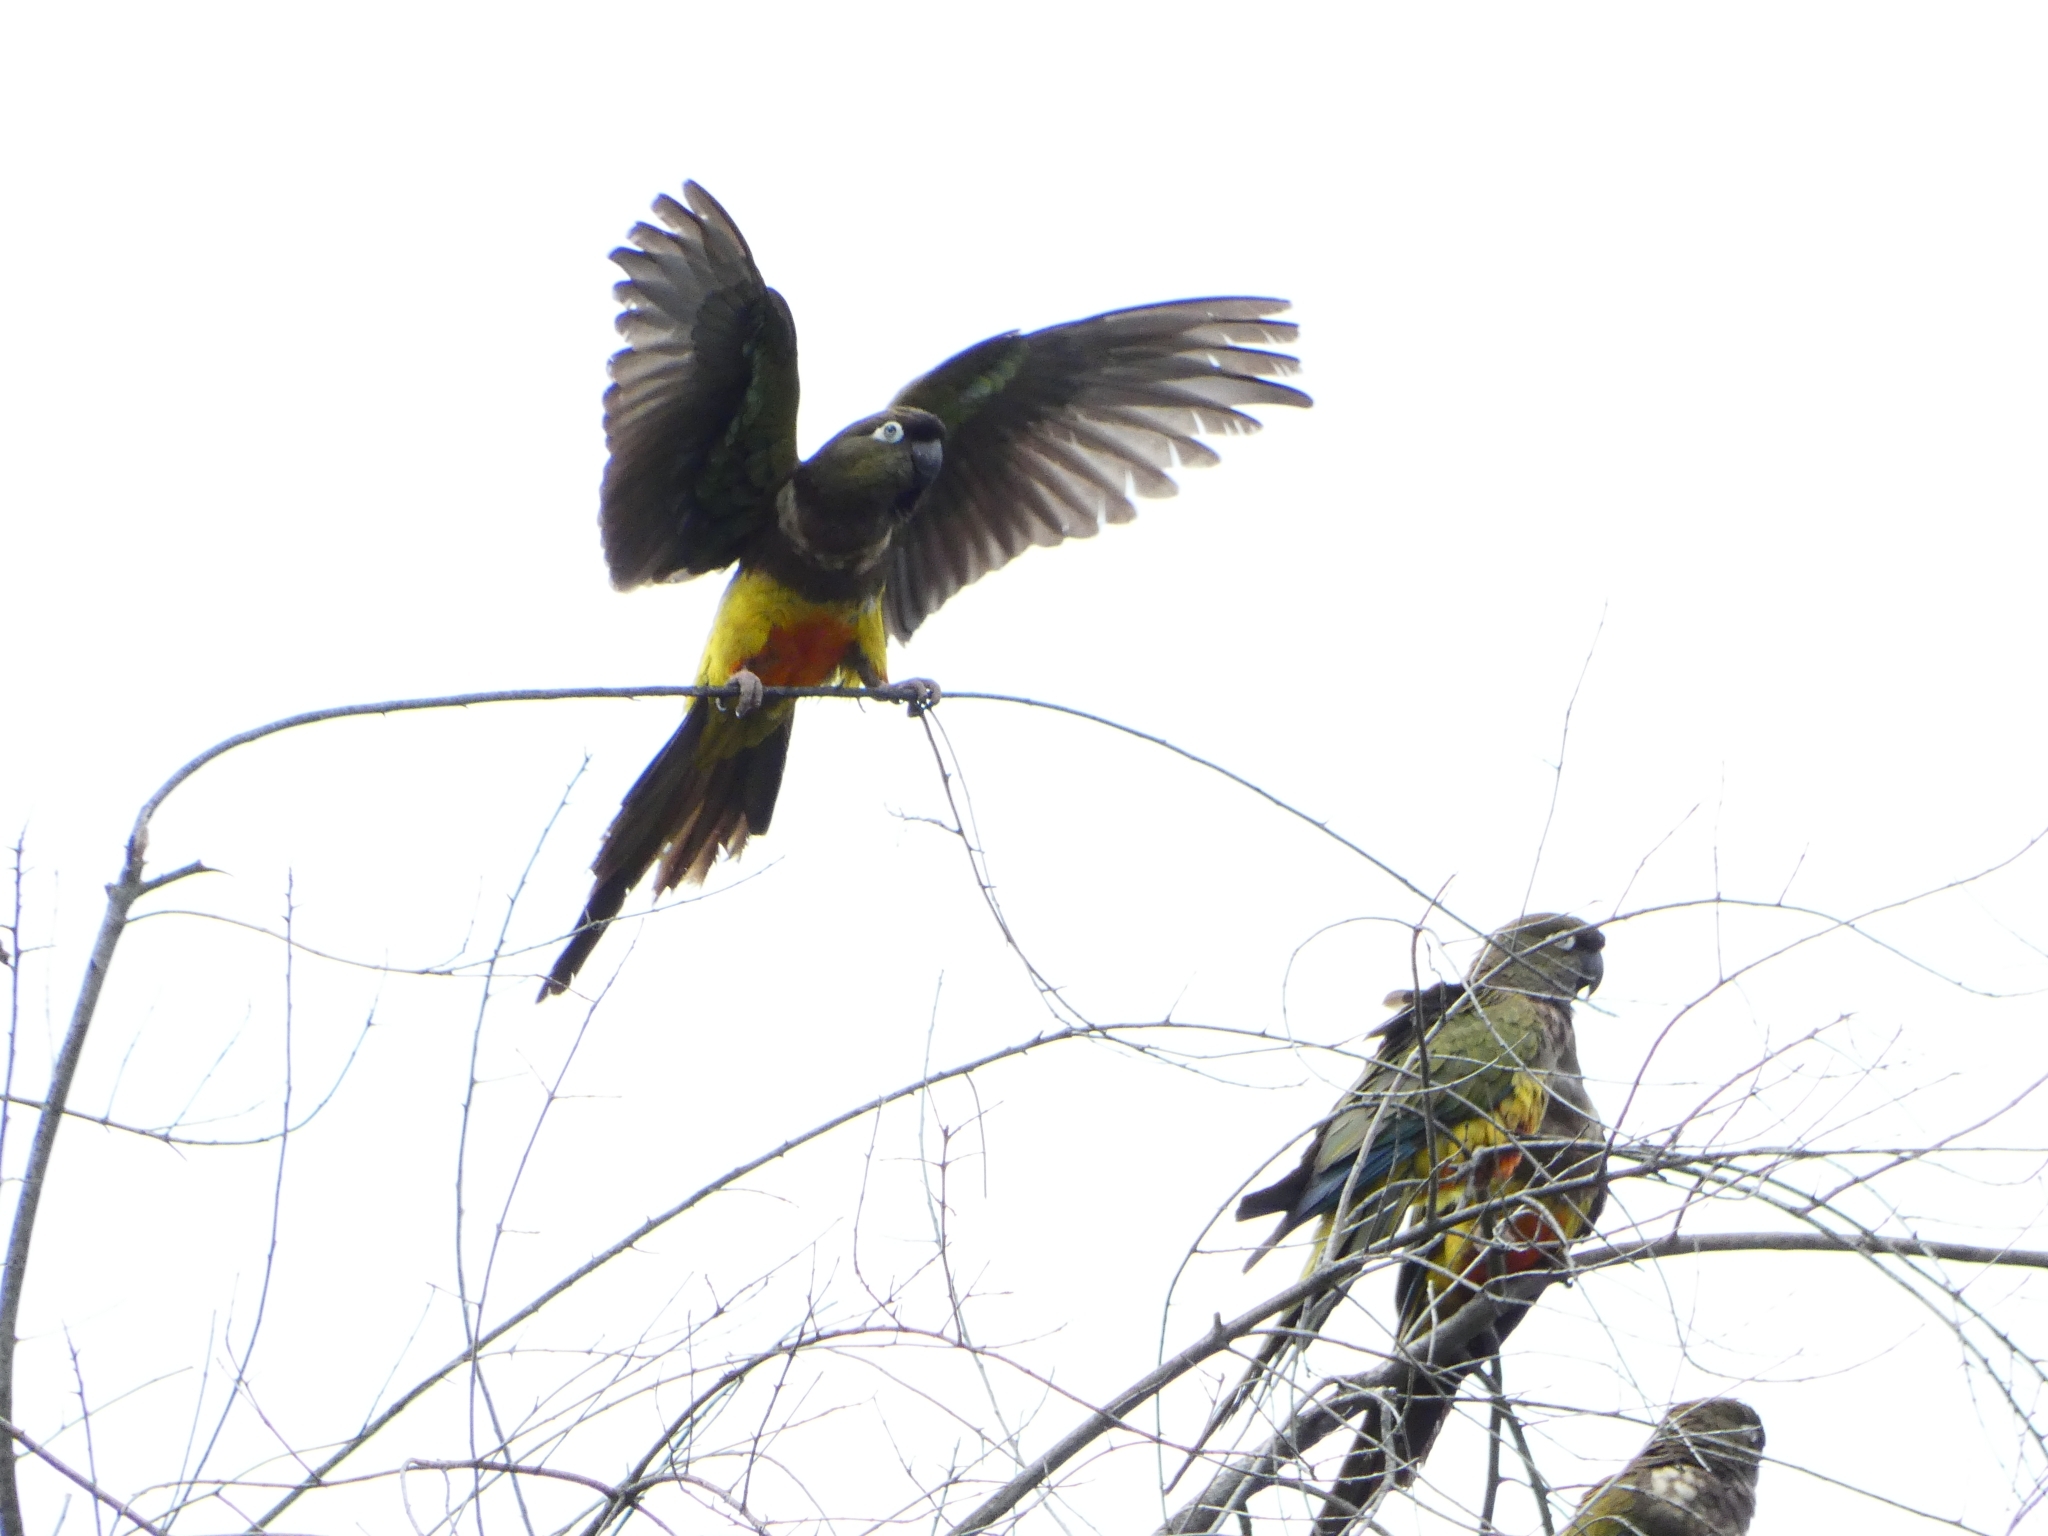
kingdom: Animalia
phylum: Chordata
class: Aves
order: Psittaciformes
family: Psittacidae
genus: Cyanoliseus
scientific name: Cyanoliseus patagonus
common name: Burrowing parrot
